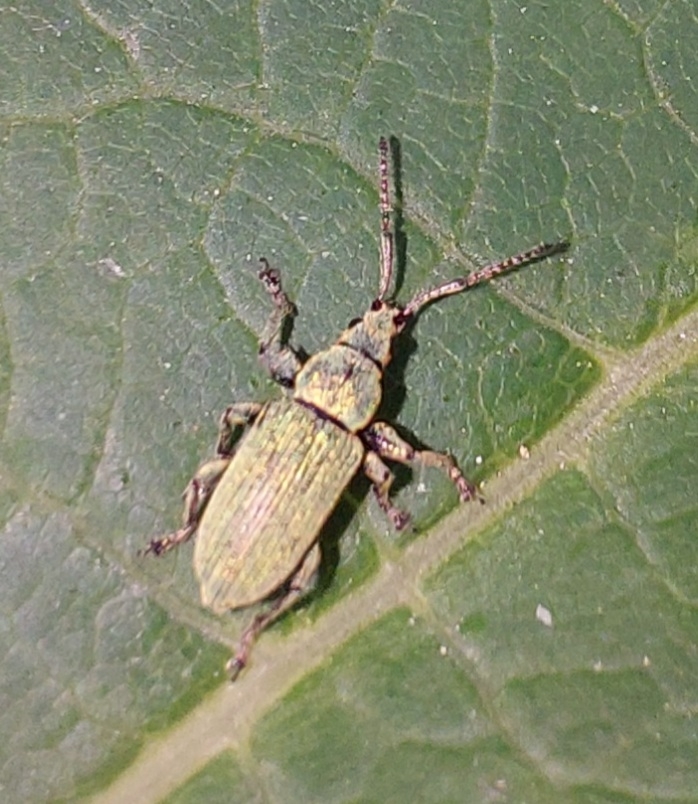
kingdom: Animalia
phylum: Arthropoda
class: Insecta
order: Coleoptera
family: Curculionidae
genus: Phyllobius
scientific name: Phyllobius maculicornis
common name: Green leaf weevil
